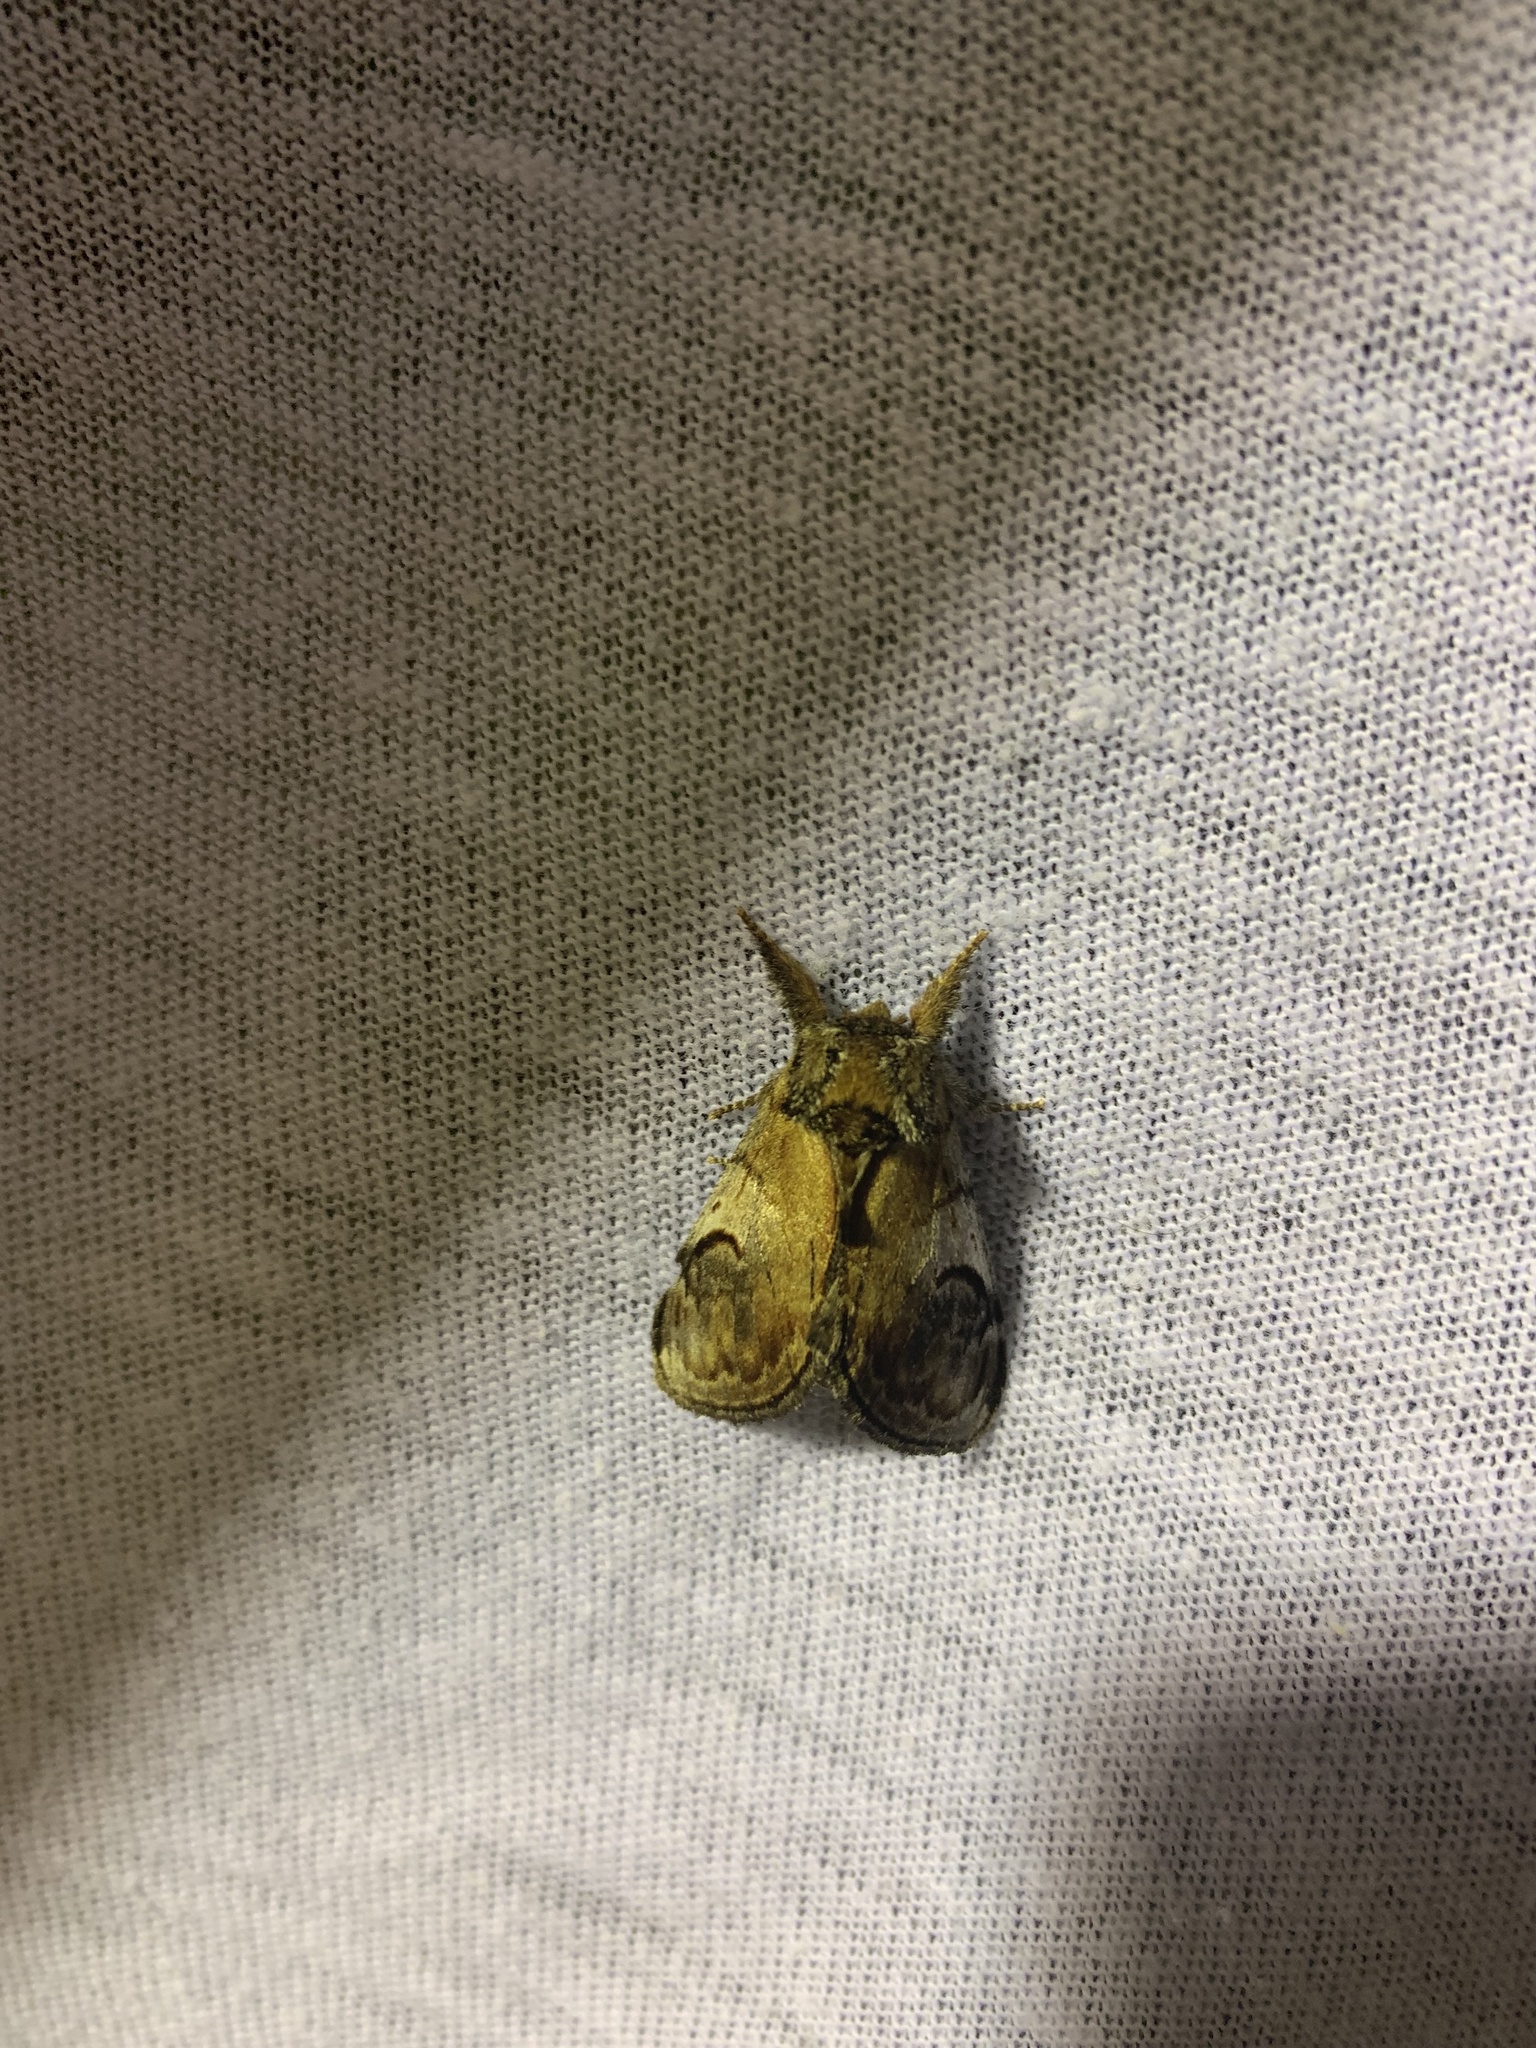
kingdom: Animalia
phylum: Arthropoda
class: Insecta
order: Lepidoptera
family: Notodontidae
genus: Notodonta
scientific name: Notodonta ziczac
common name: Pebble prominent
